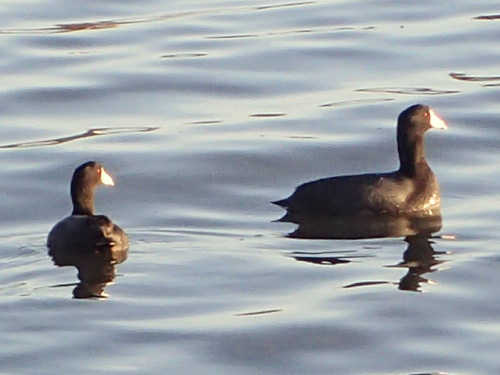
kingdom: Animalia
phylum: Chordata
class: Aves
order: Gruiformes
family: Rallidae
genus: Fulica
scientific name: Fulica americana
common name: American coot
